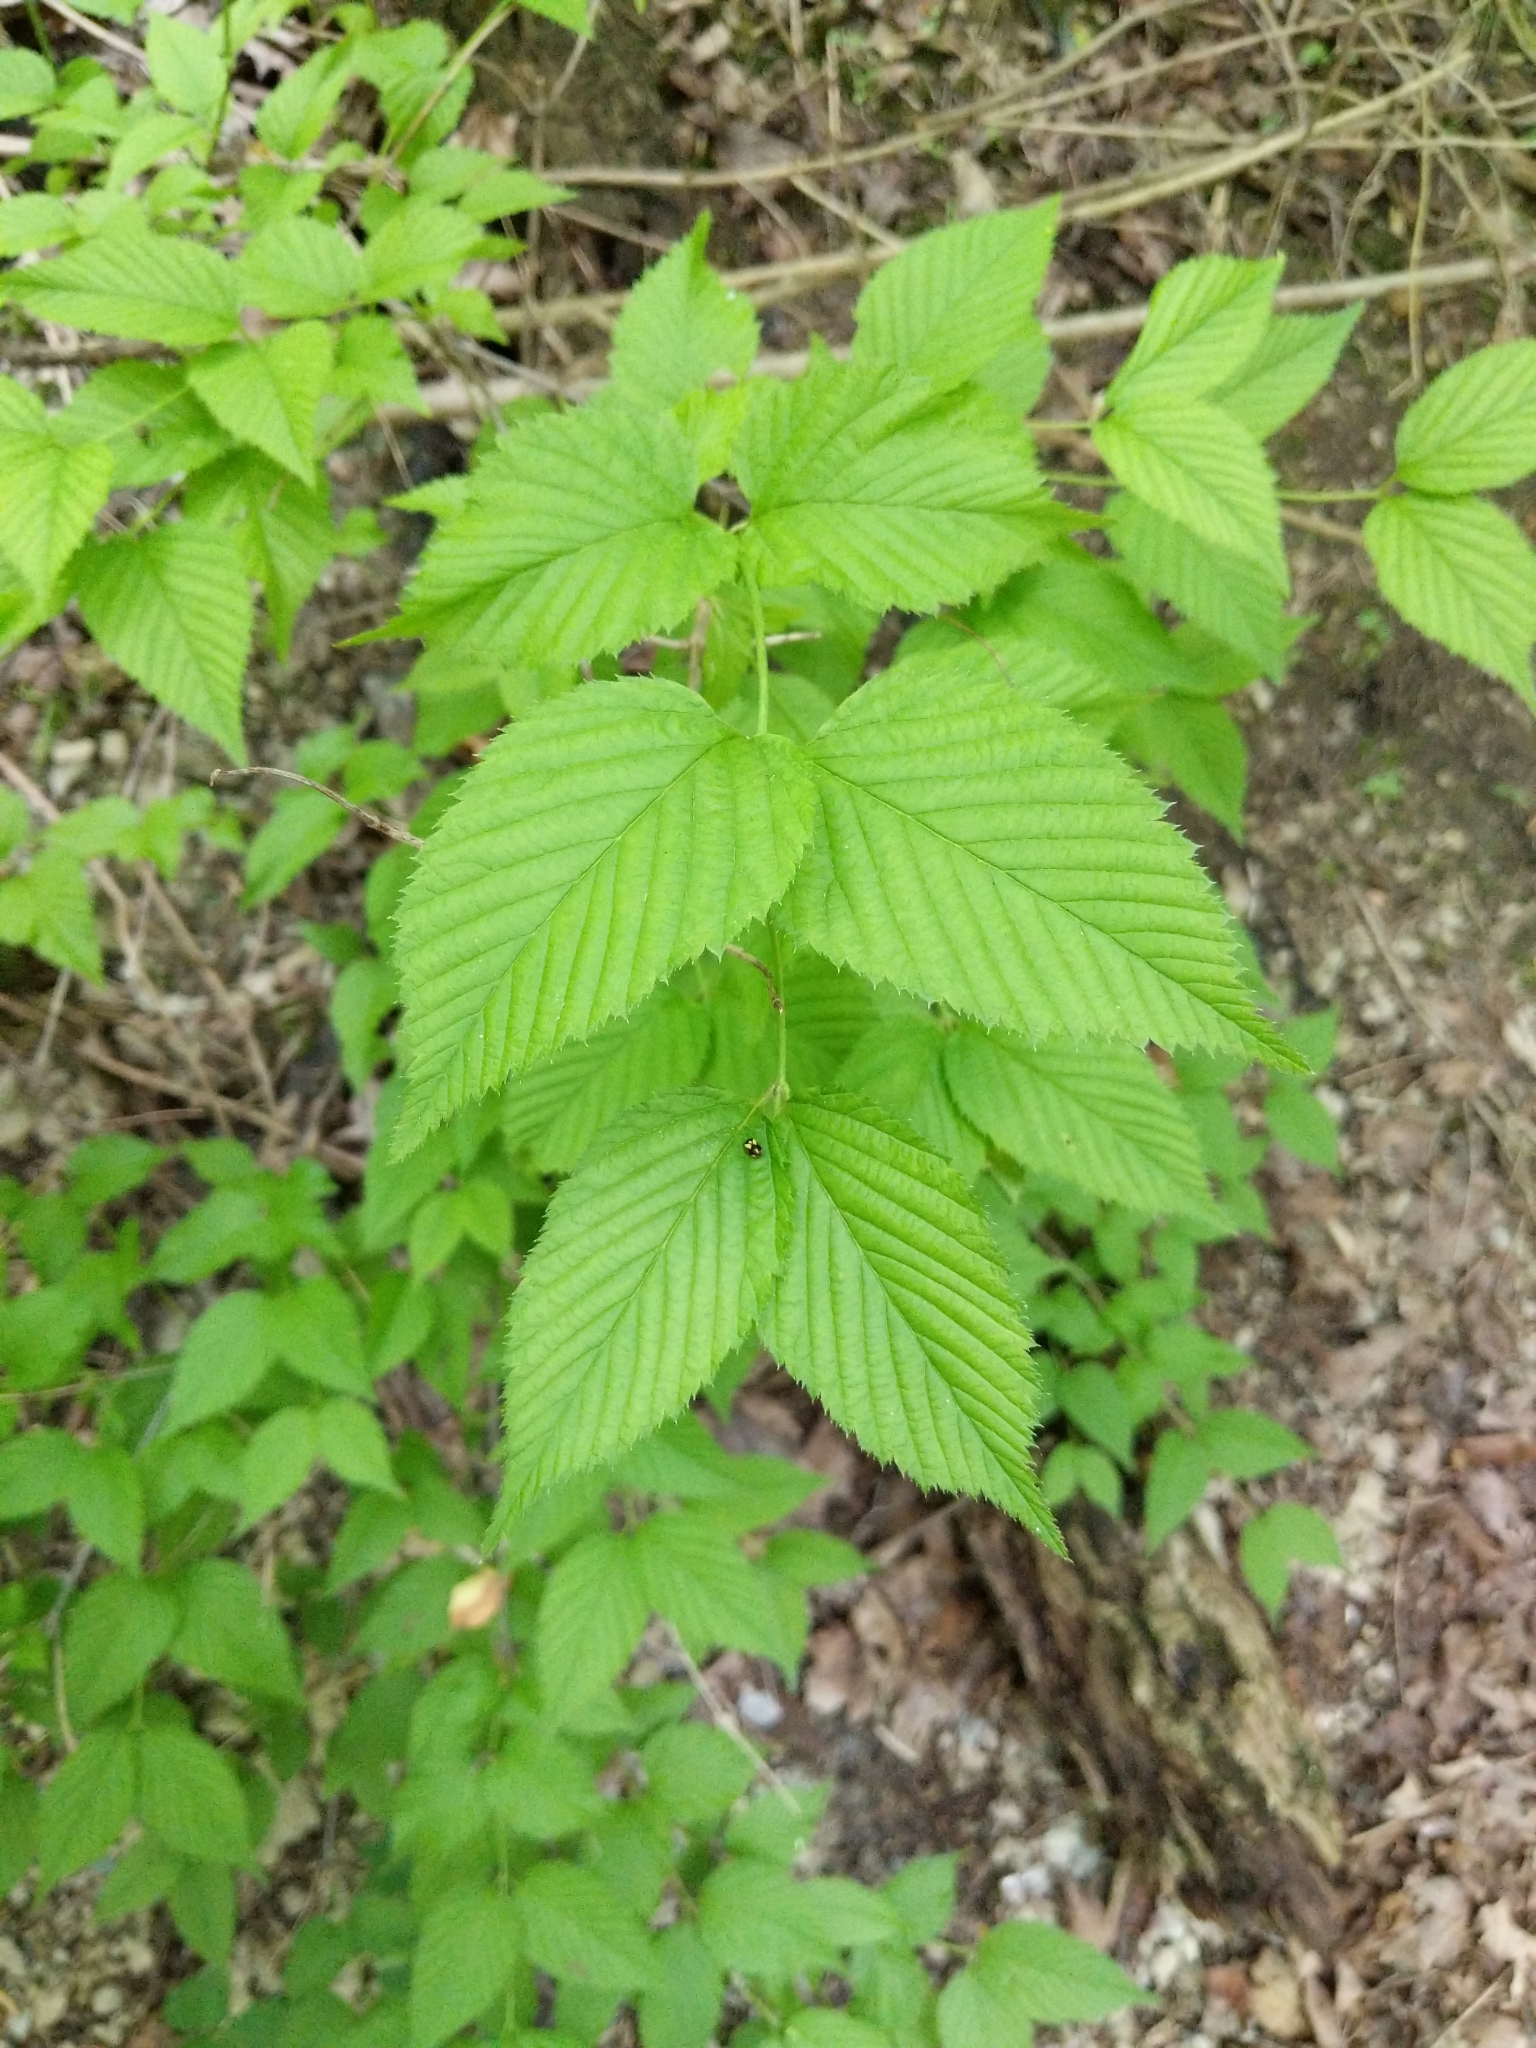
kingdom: Plantae
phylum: Tracheophyta
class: Magnoliopsida
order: Rosales
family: Rosaceae
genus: Rhodotypos
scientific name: Rhodotypos scandens
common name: Jetbead
